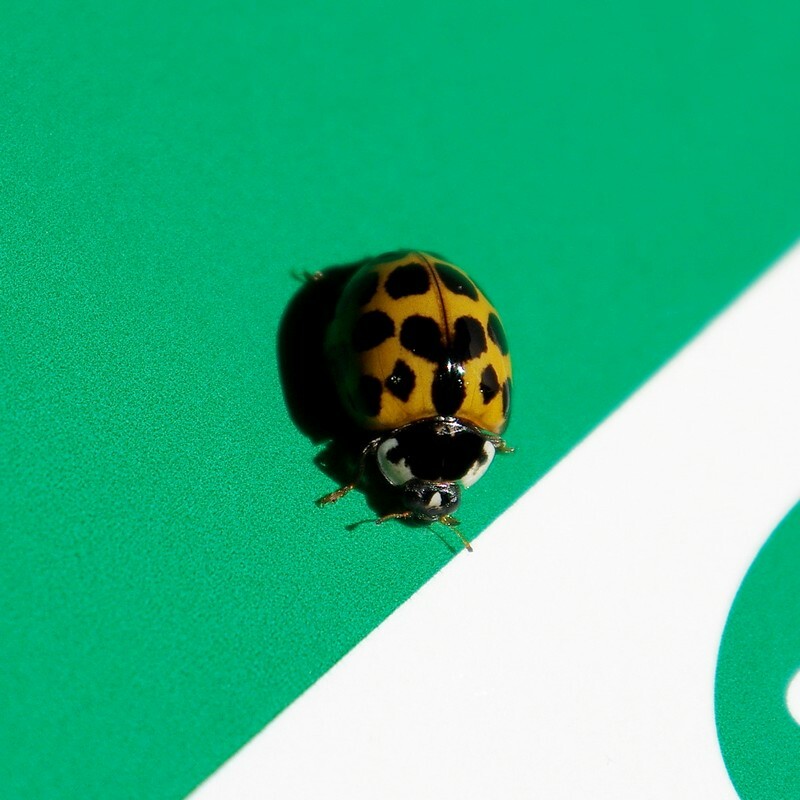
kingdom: Animalia
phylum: Arthropoda
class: Insecta
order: Coleoptera
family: Coccinellidae
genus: Harmonia
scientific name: Harmonia axyridis
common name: Harlequin ladybird
